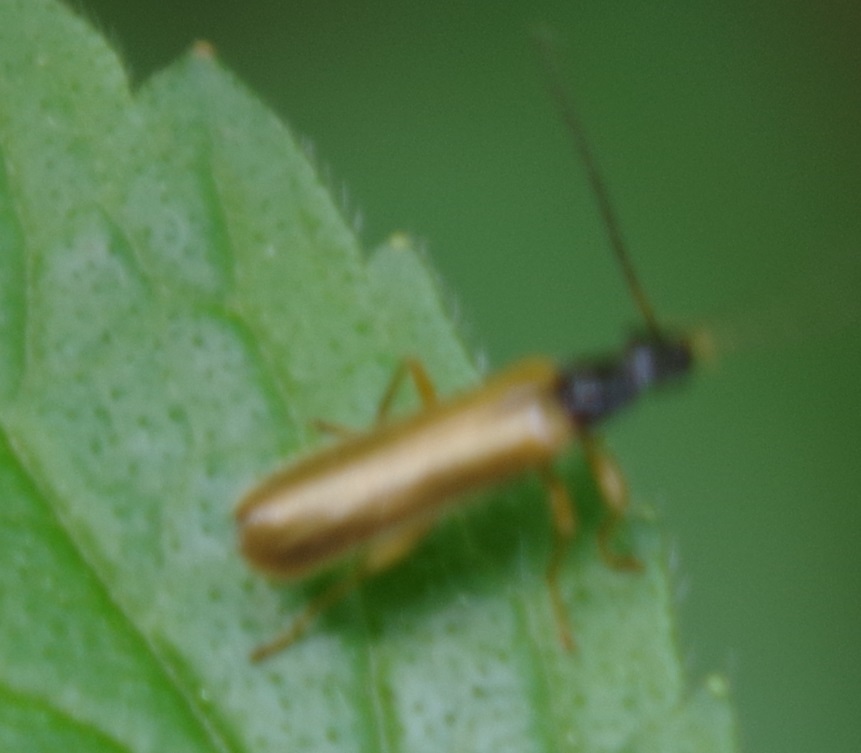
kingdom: Animalia
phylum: Arthropoda
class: Insecta
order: Coleoptera
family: Cantharidae
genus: Rhagonycha
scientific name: Rhagonycha lignosa
